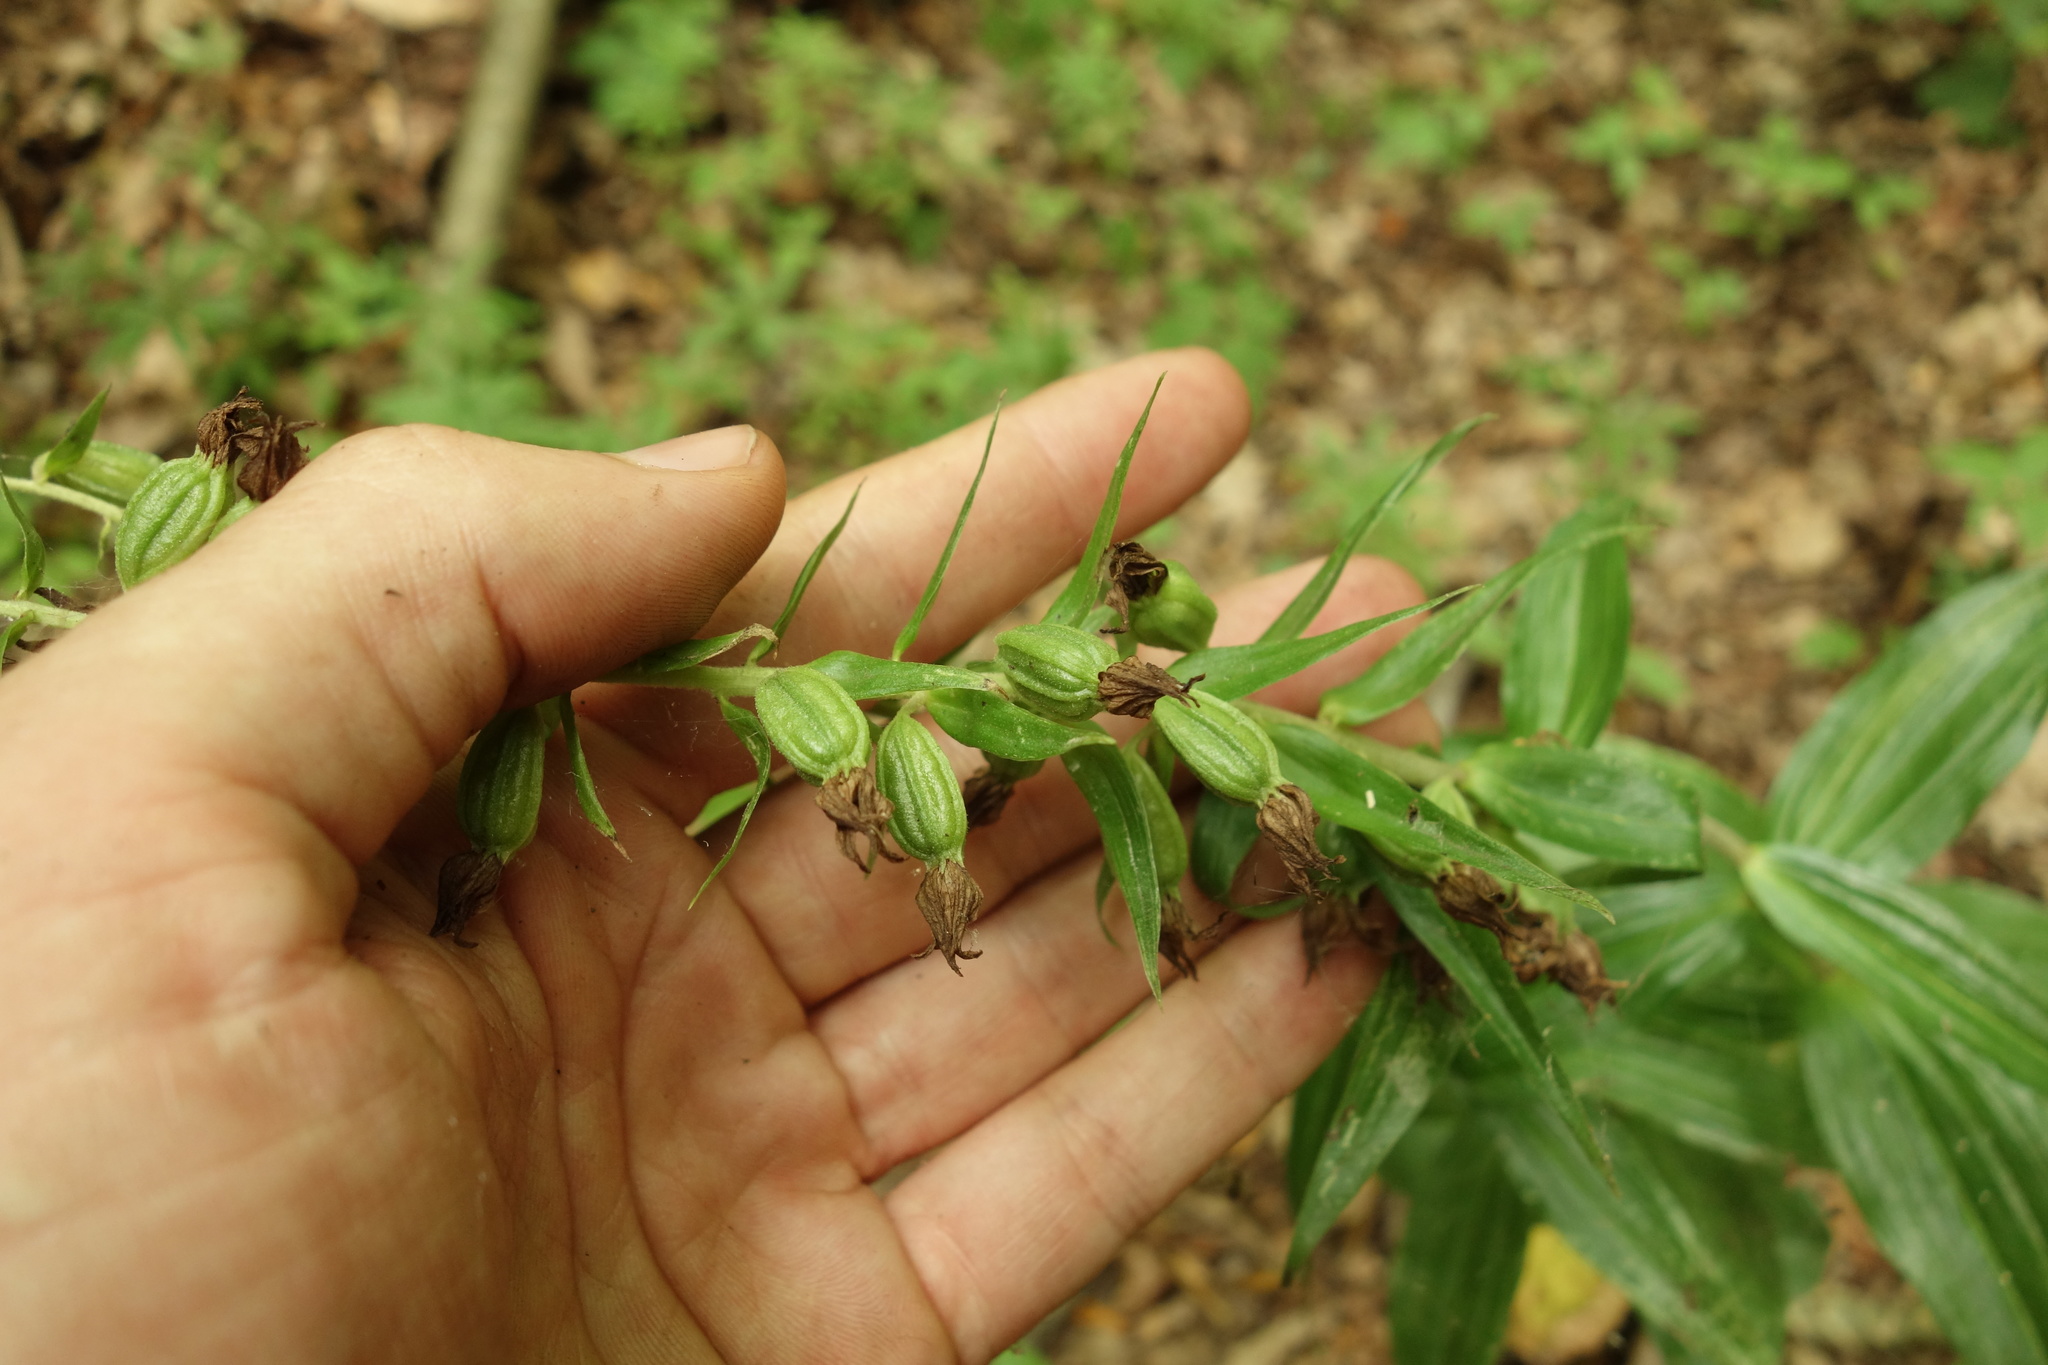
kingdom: Plantae
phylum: Tracheophyta
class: Liliopsida
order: Asparagales
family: Orchidaceae
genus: Epipactis
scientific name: Epipactis helleborine
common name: Broad-leaved helleborine
